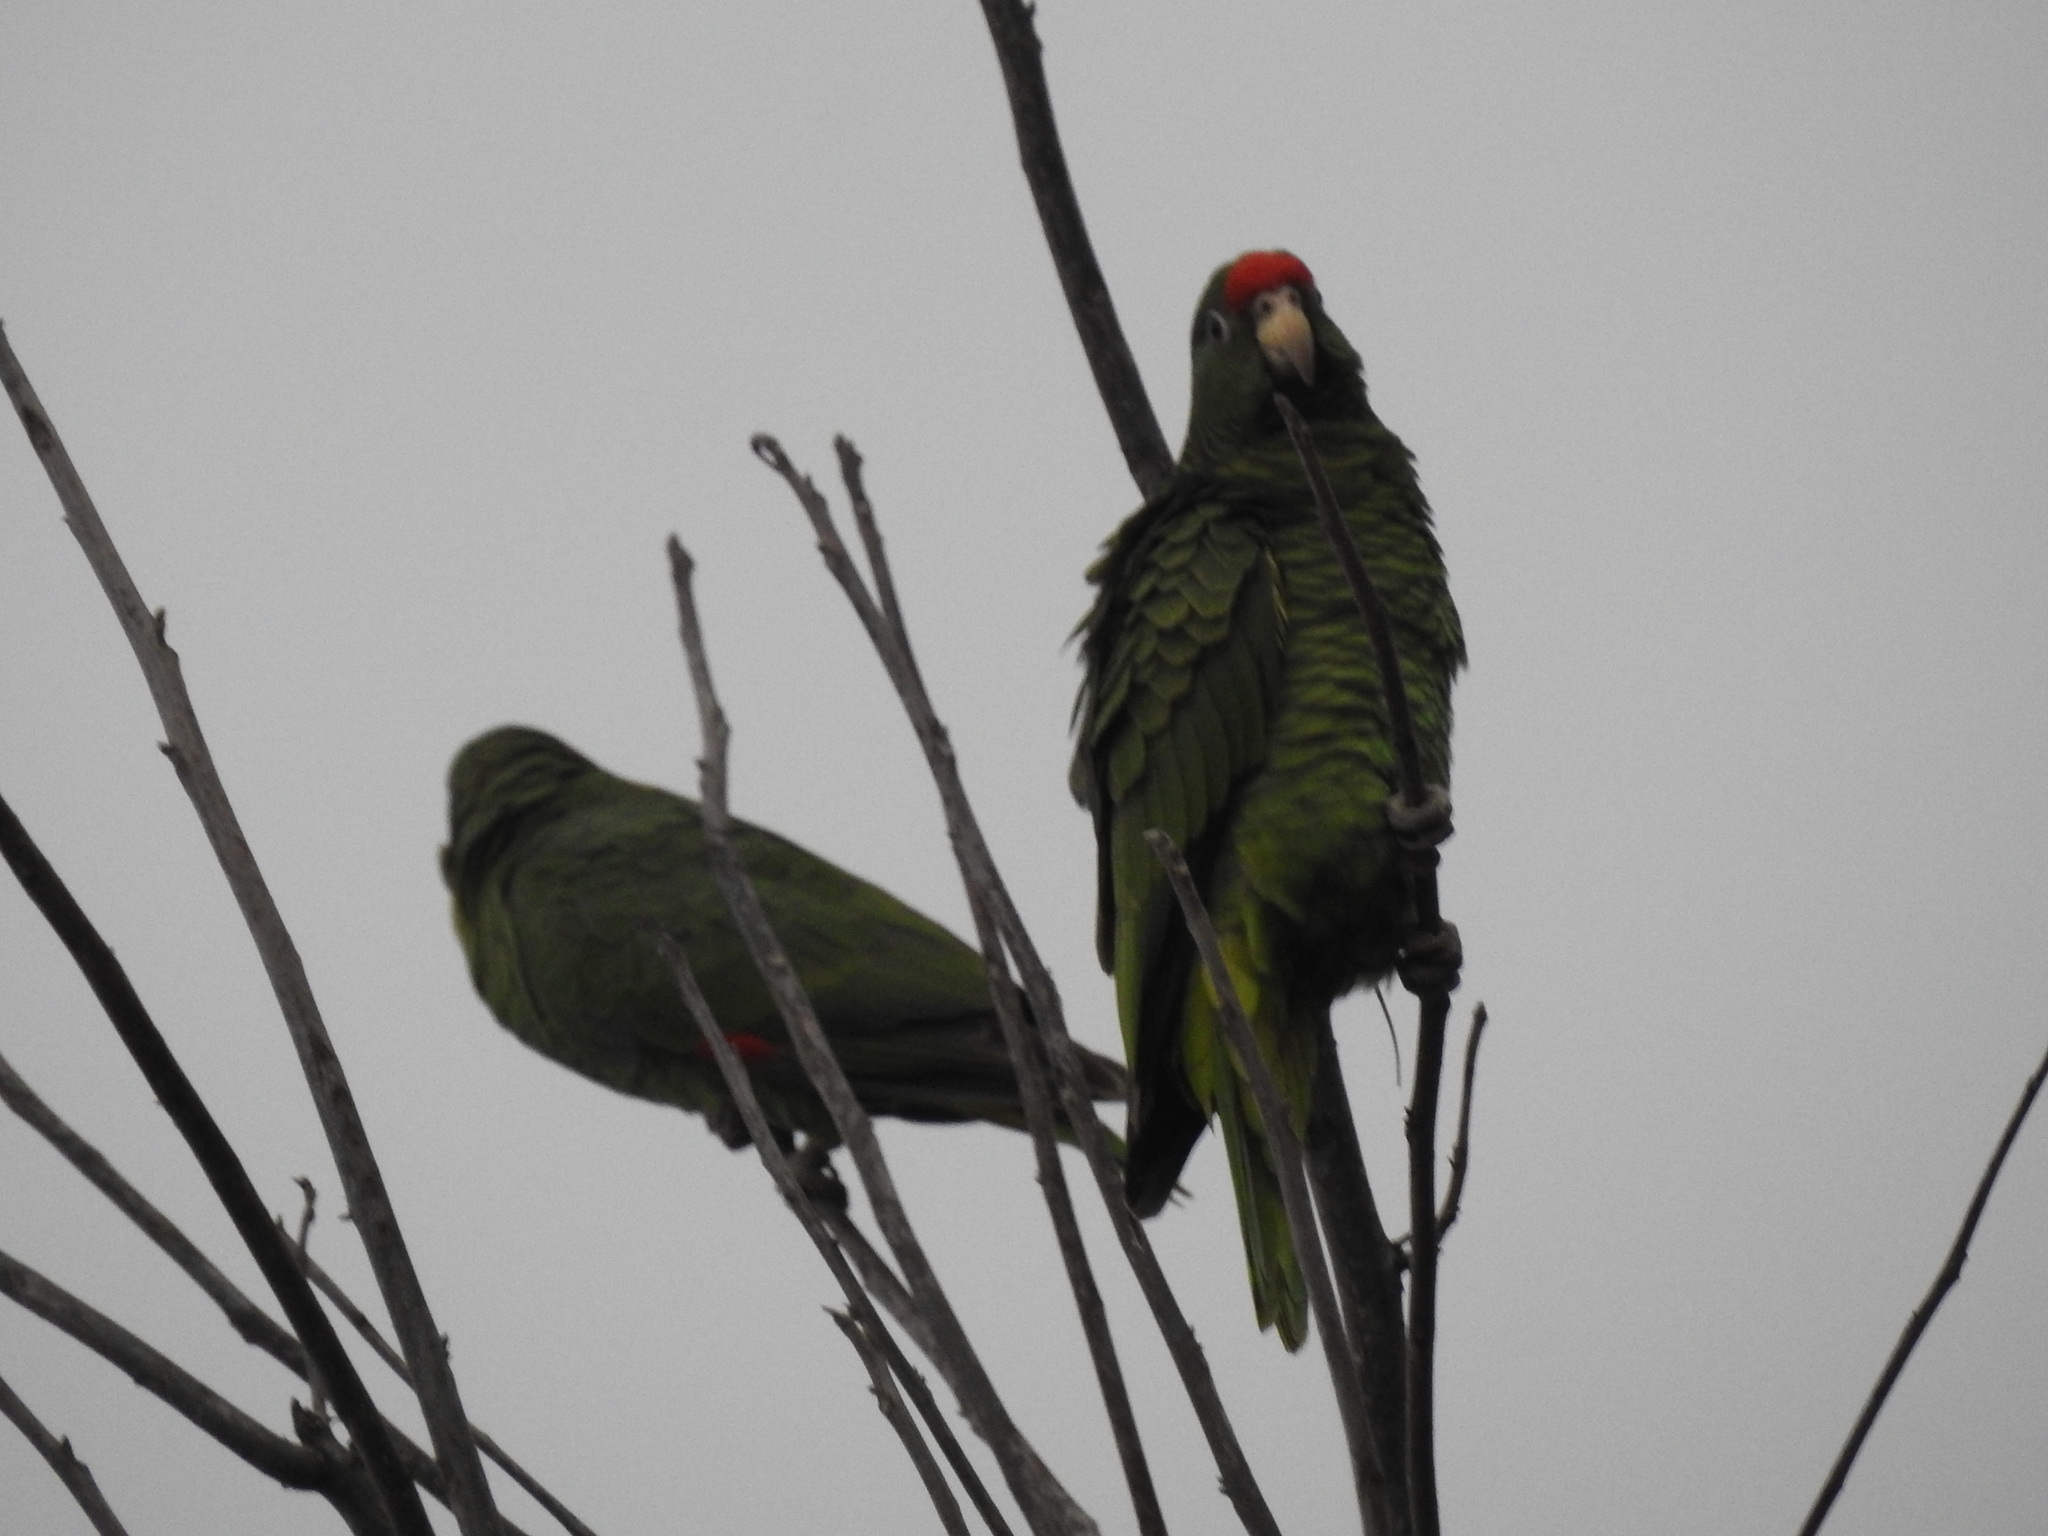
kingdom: Animalia
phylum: Chordata
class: Aves
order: Psittaciformes
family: Psittacidae
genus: Aratinga
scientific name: Aratinga mitrata
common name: Mitred parakeet
